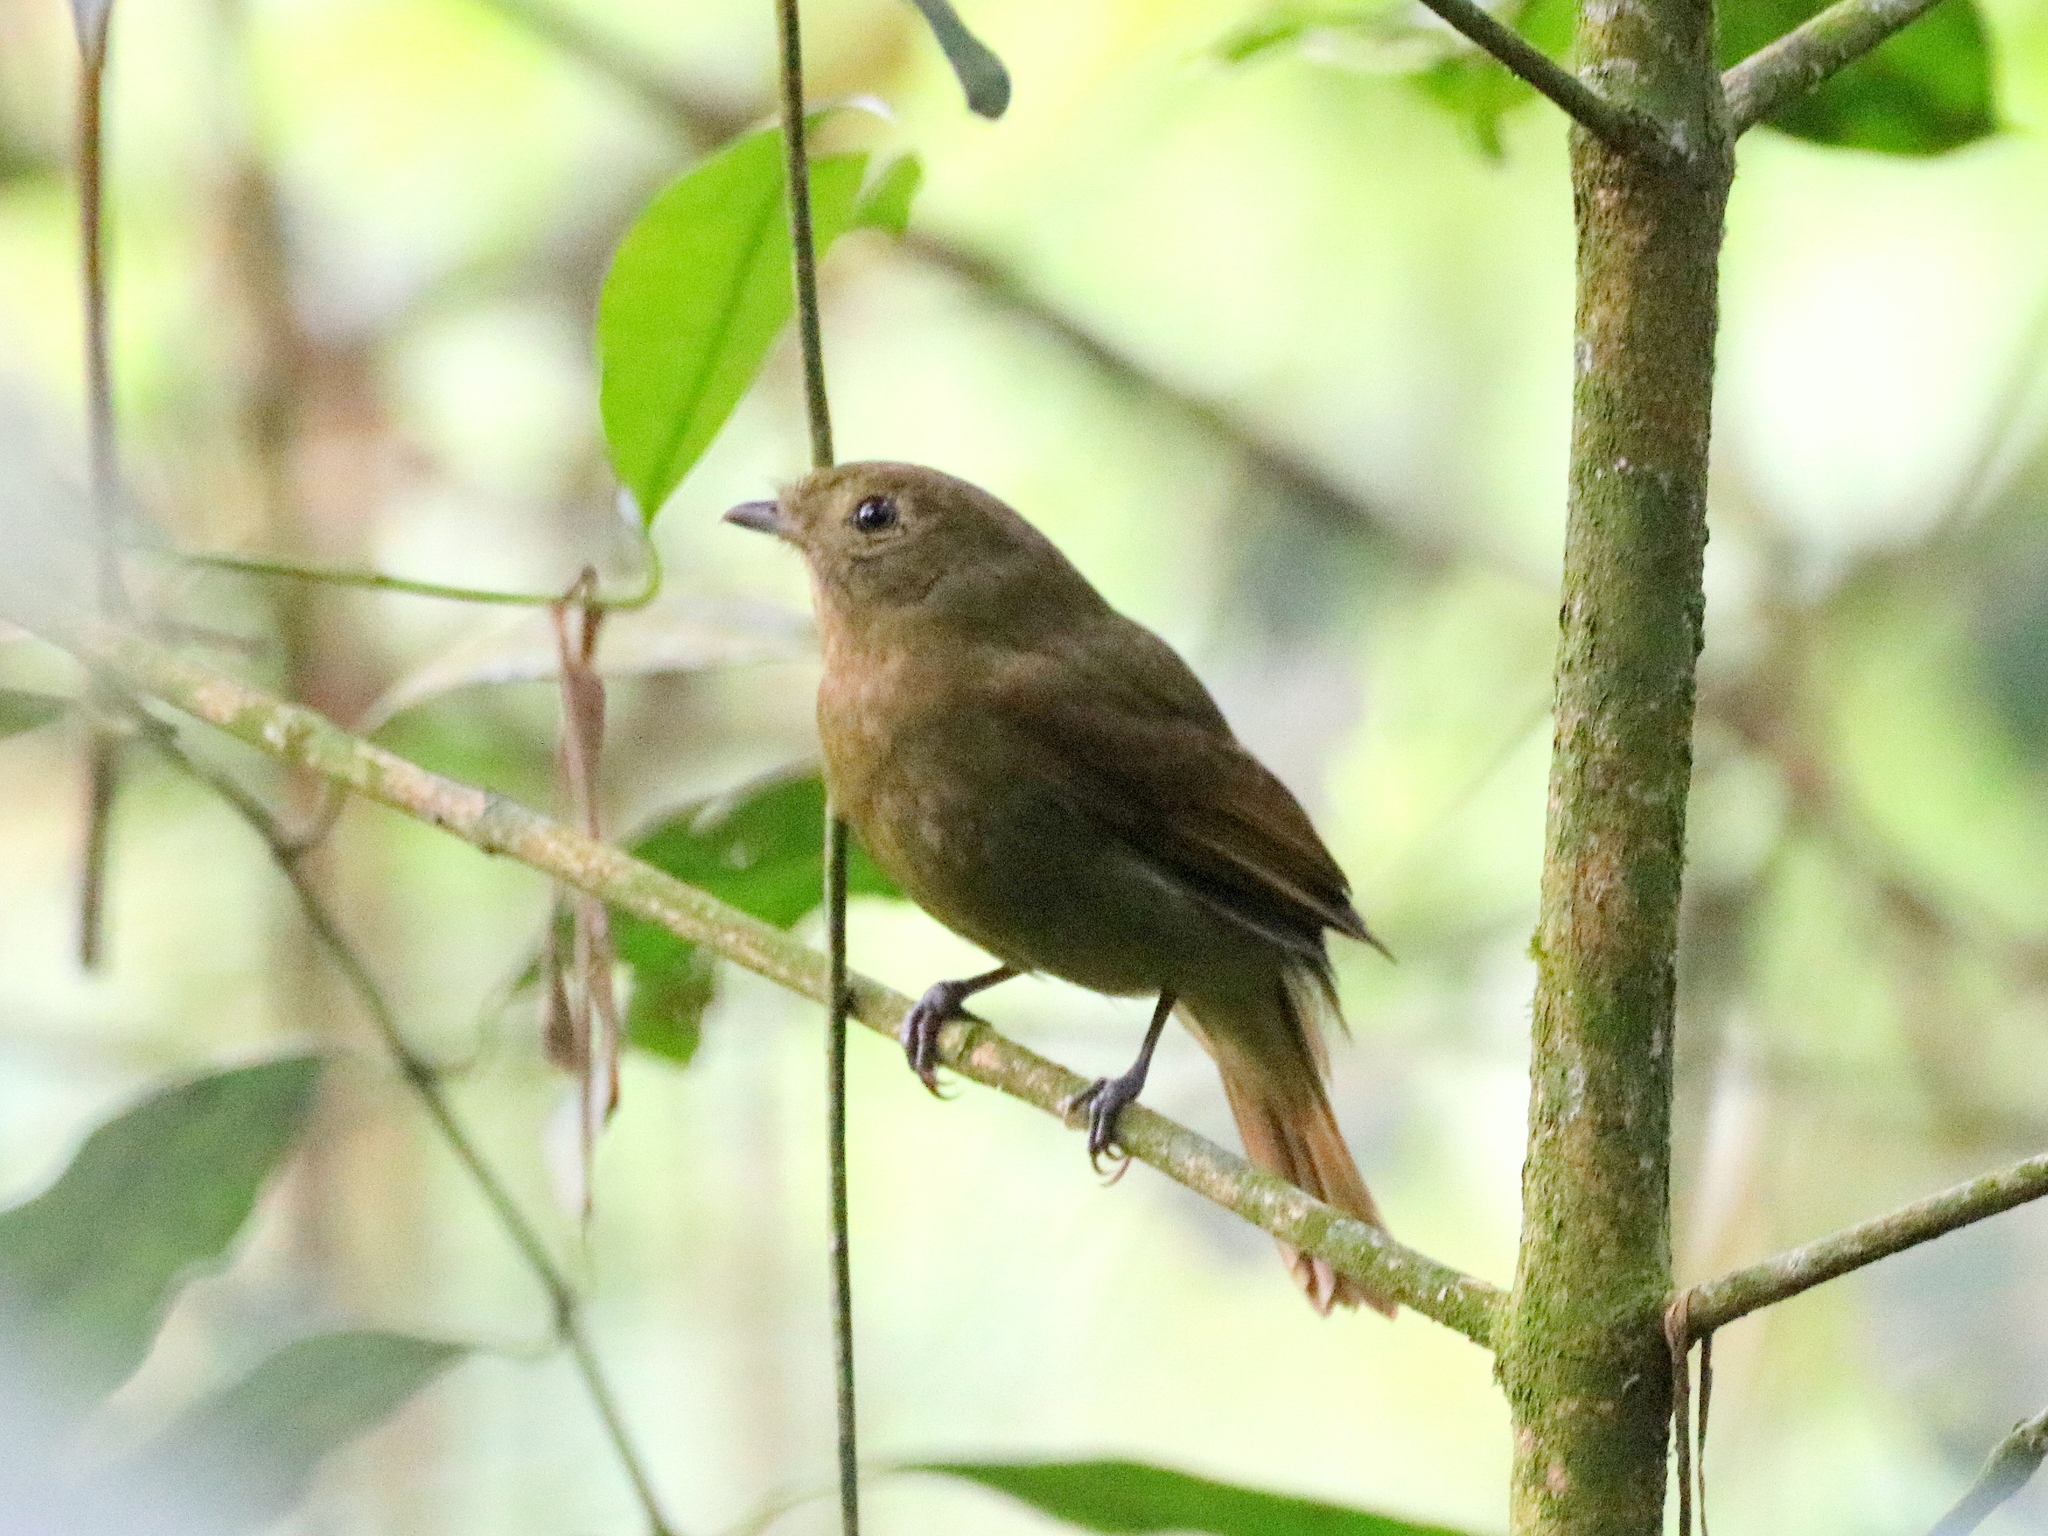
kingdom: Animalia
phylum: Chordata
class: Aves
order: Passeriformes
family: Cotingidae
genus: Schiffornis
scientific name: Schiffornis virescens
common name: Greenish schiffornis
